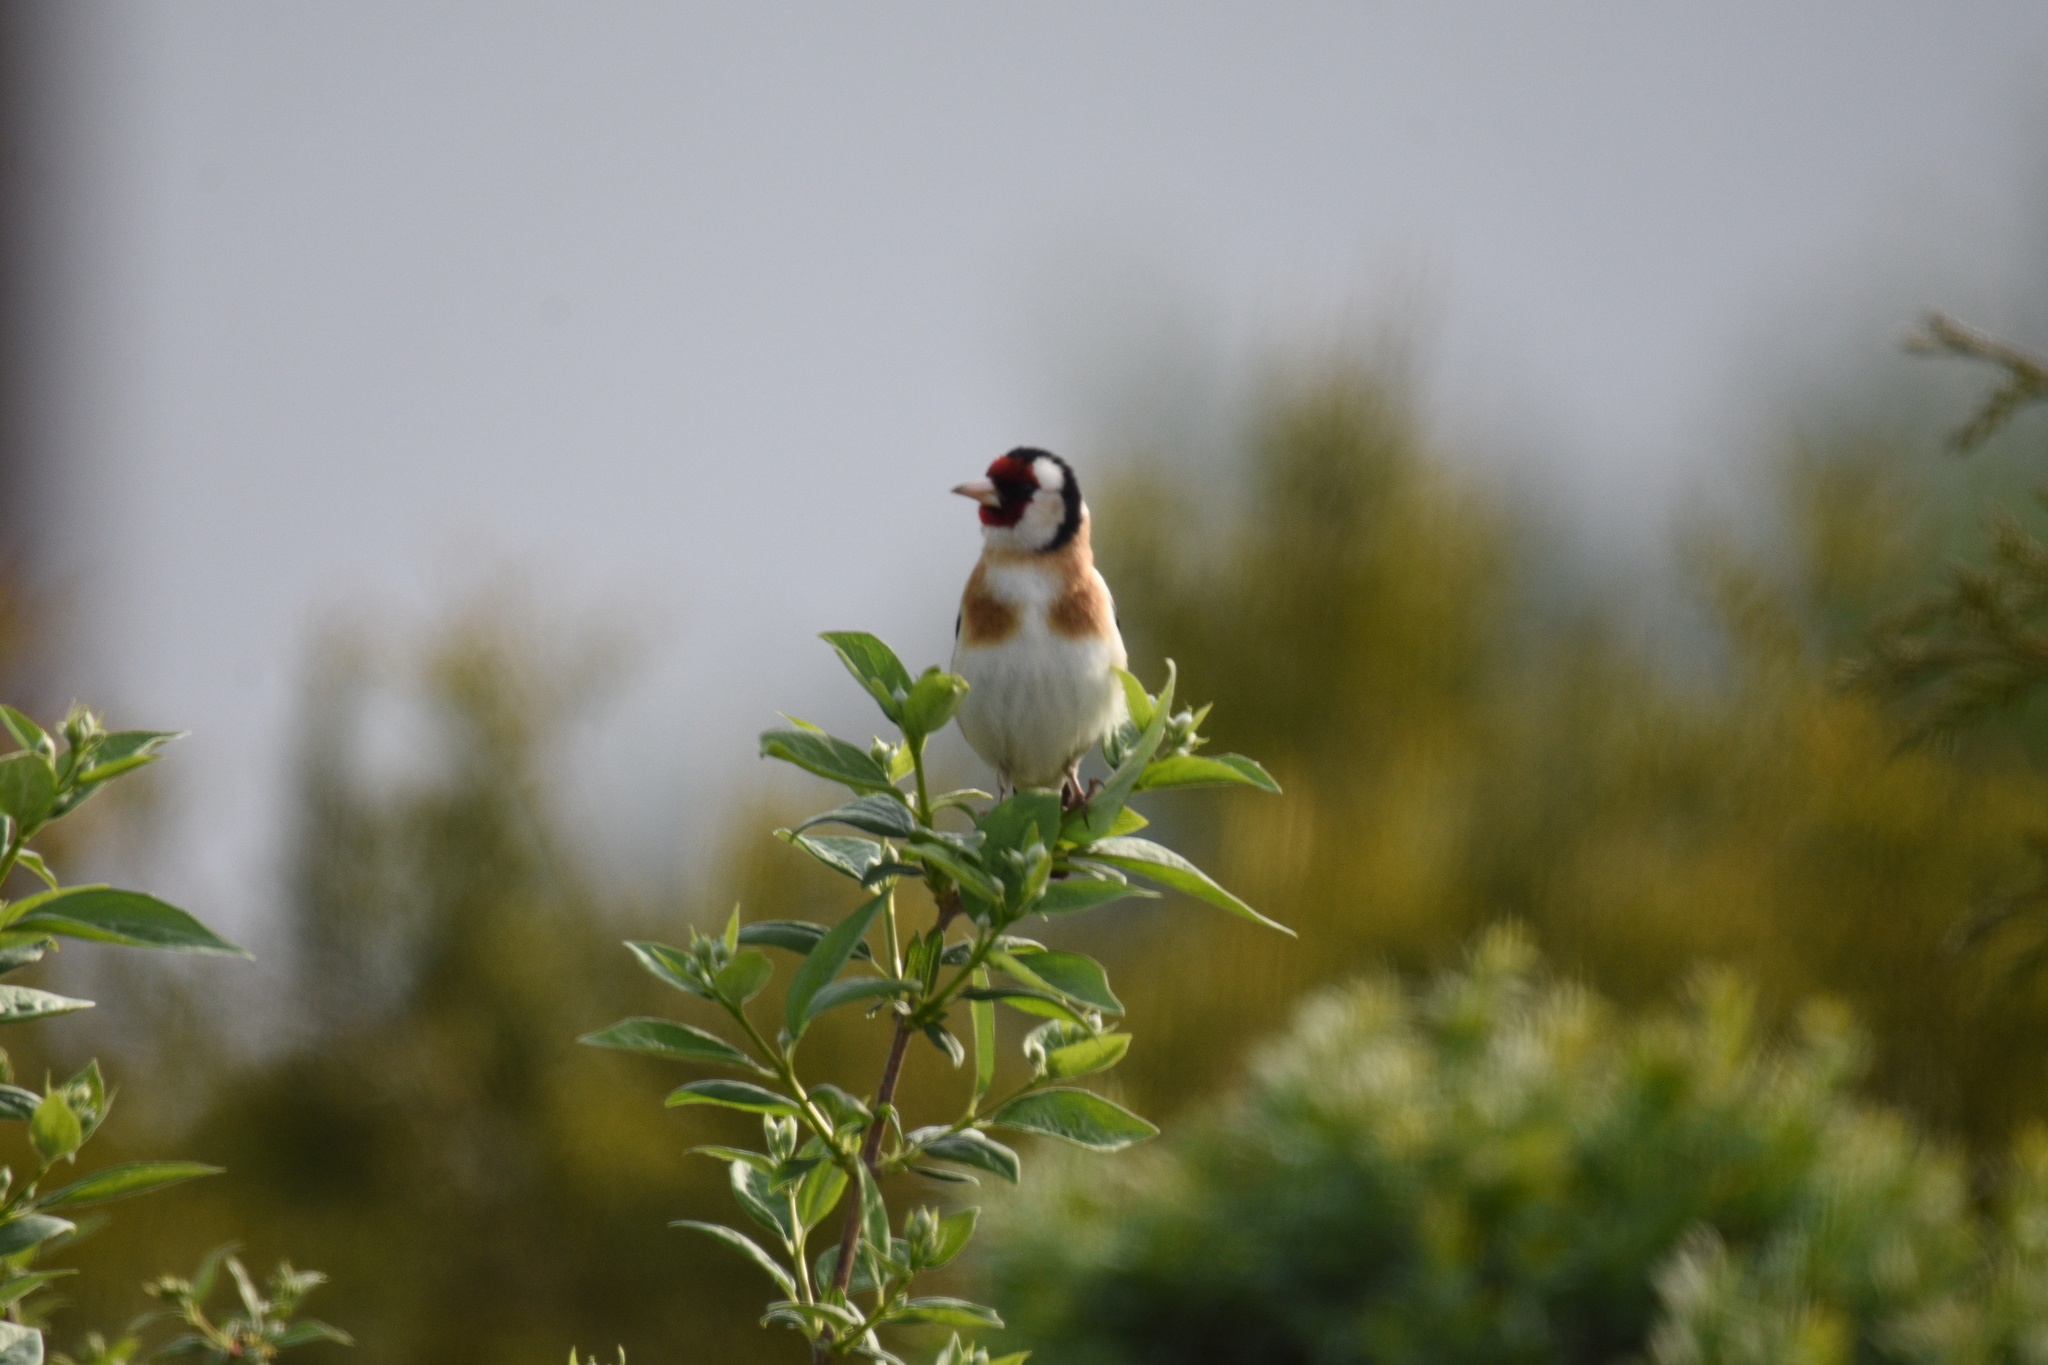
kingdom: Animalia
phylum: Chordata
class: Aves
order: Passeriformes
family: Fringillidae
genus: Carduelis
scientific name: Carduelis carduelis
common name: European goldfinch
